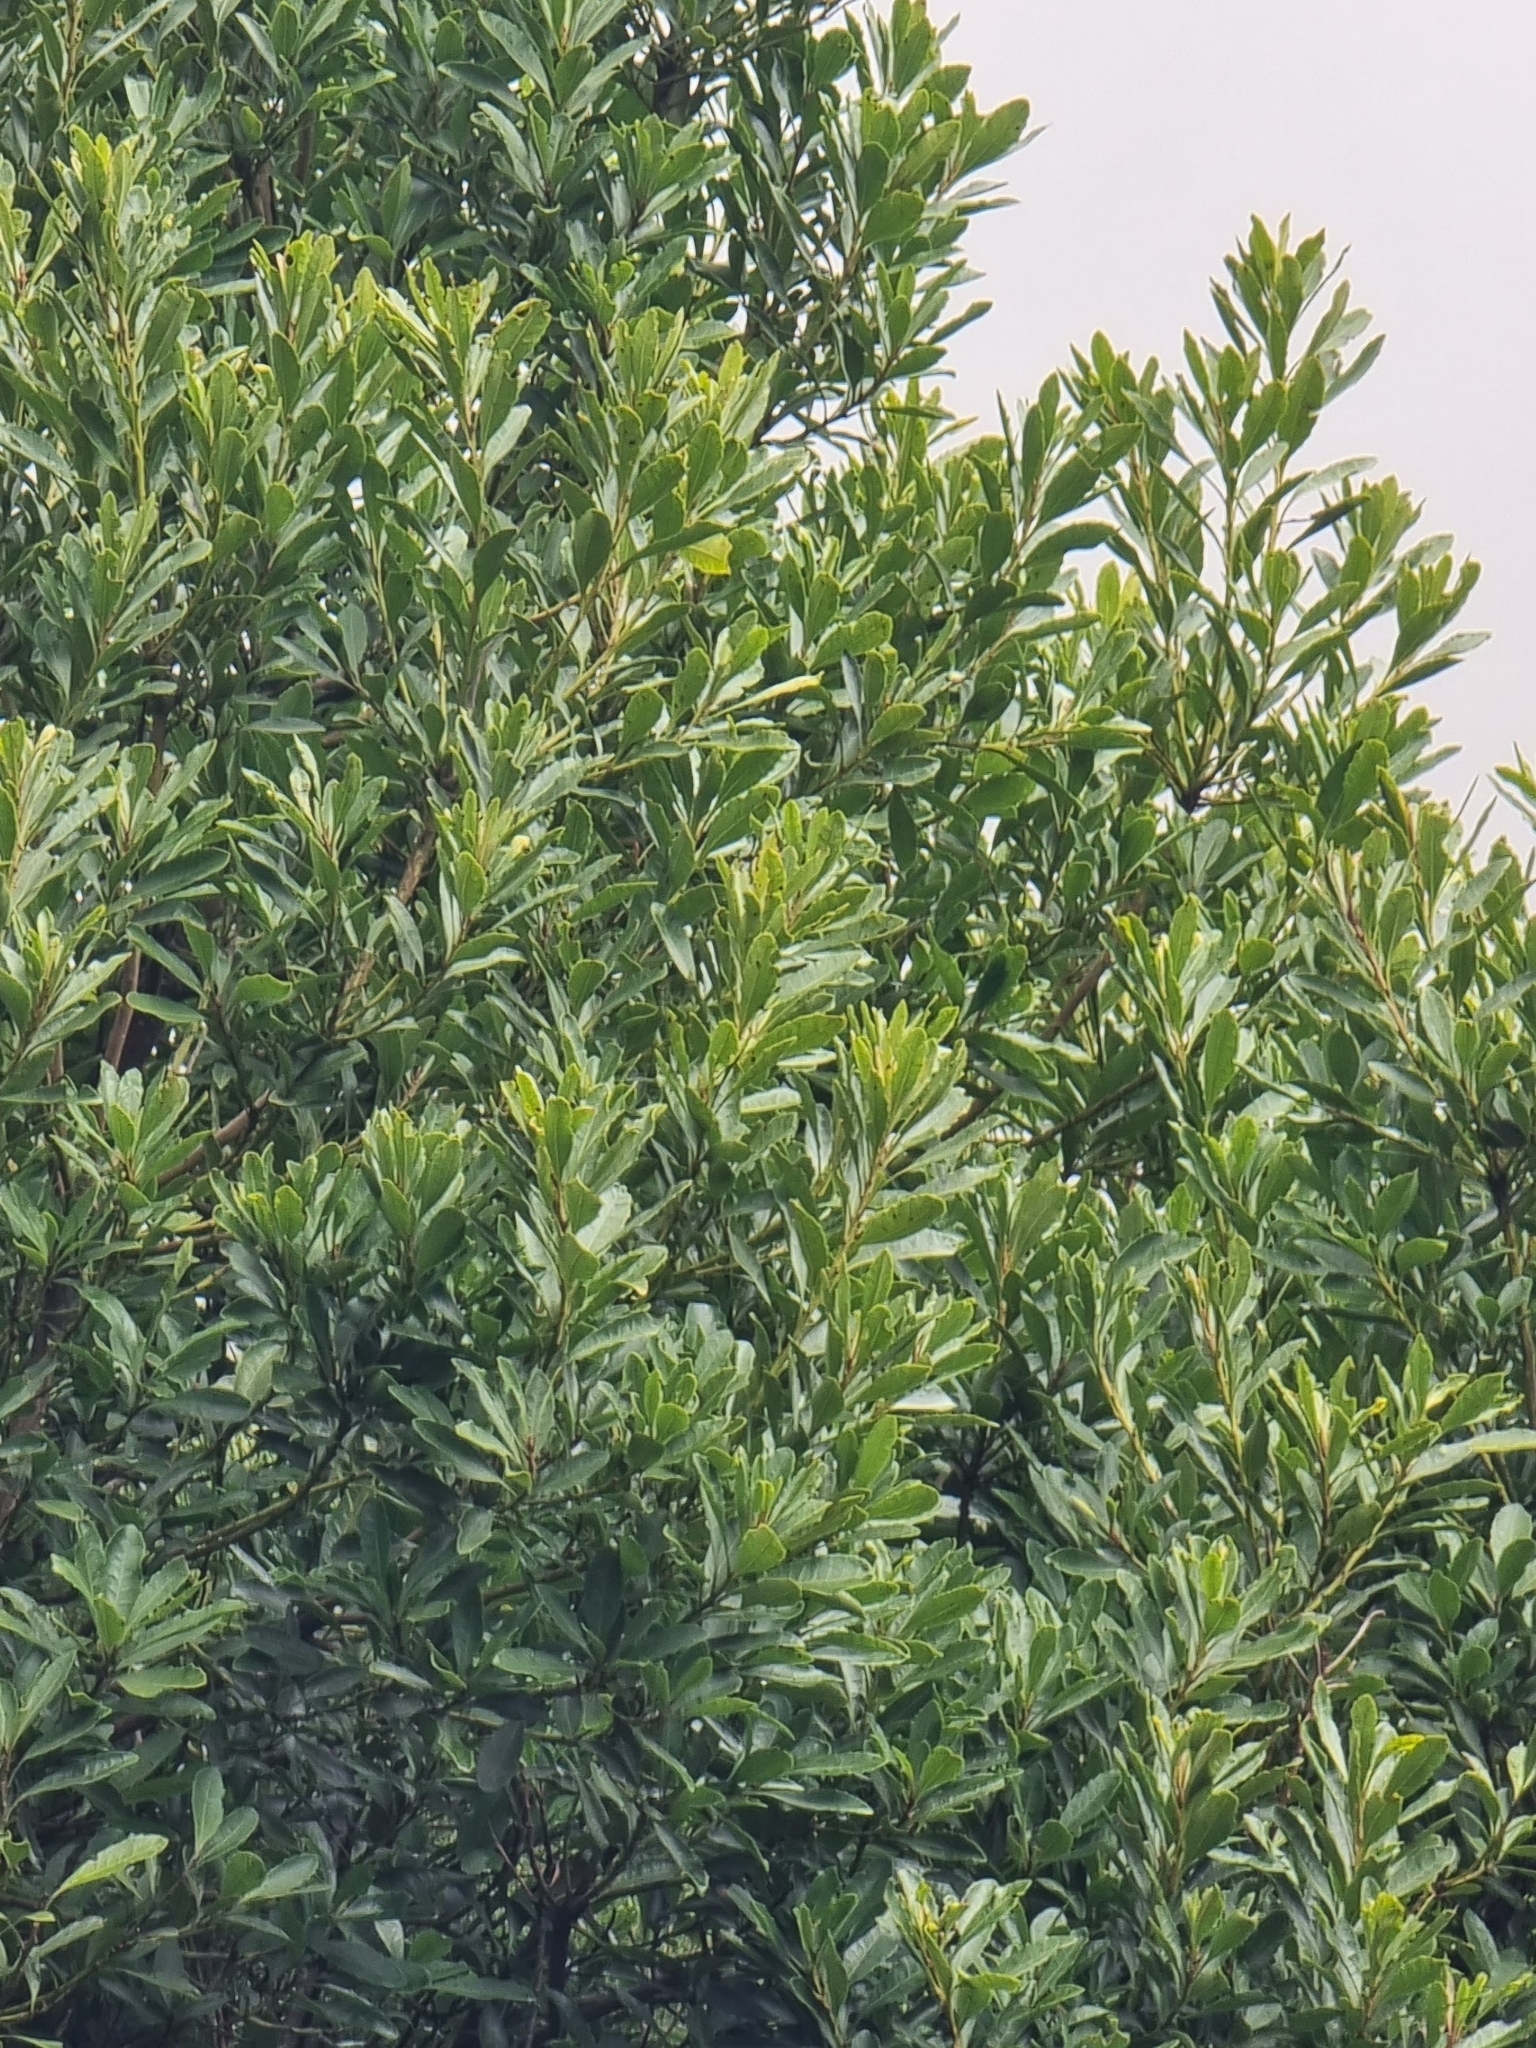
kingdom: Plantae
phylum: Tracheophyta
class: Magnoliopsida
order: Fagales
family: Myricaceae
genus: Morella
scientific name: Morella faya
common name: Firetree
